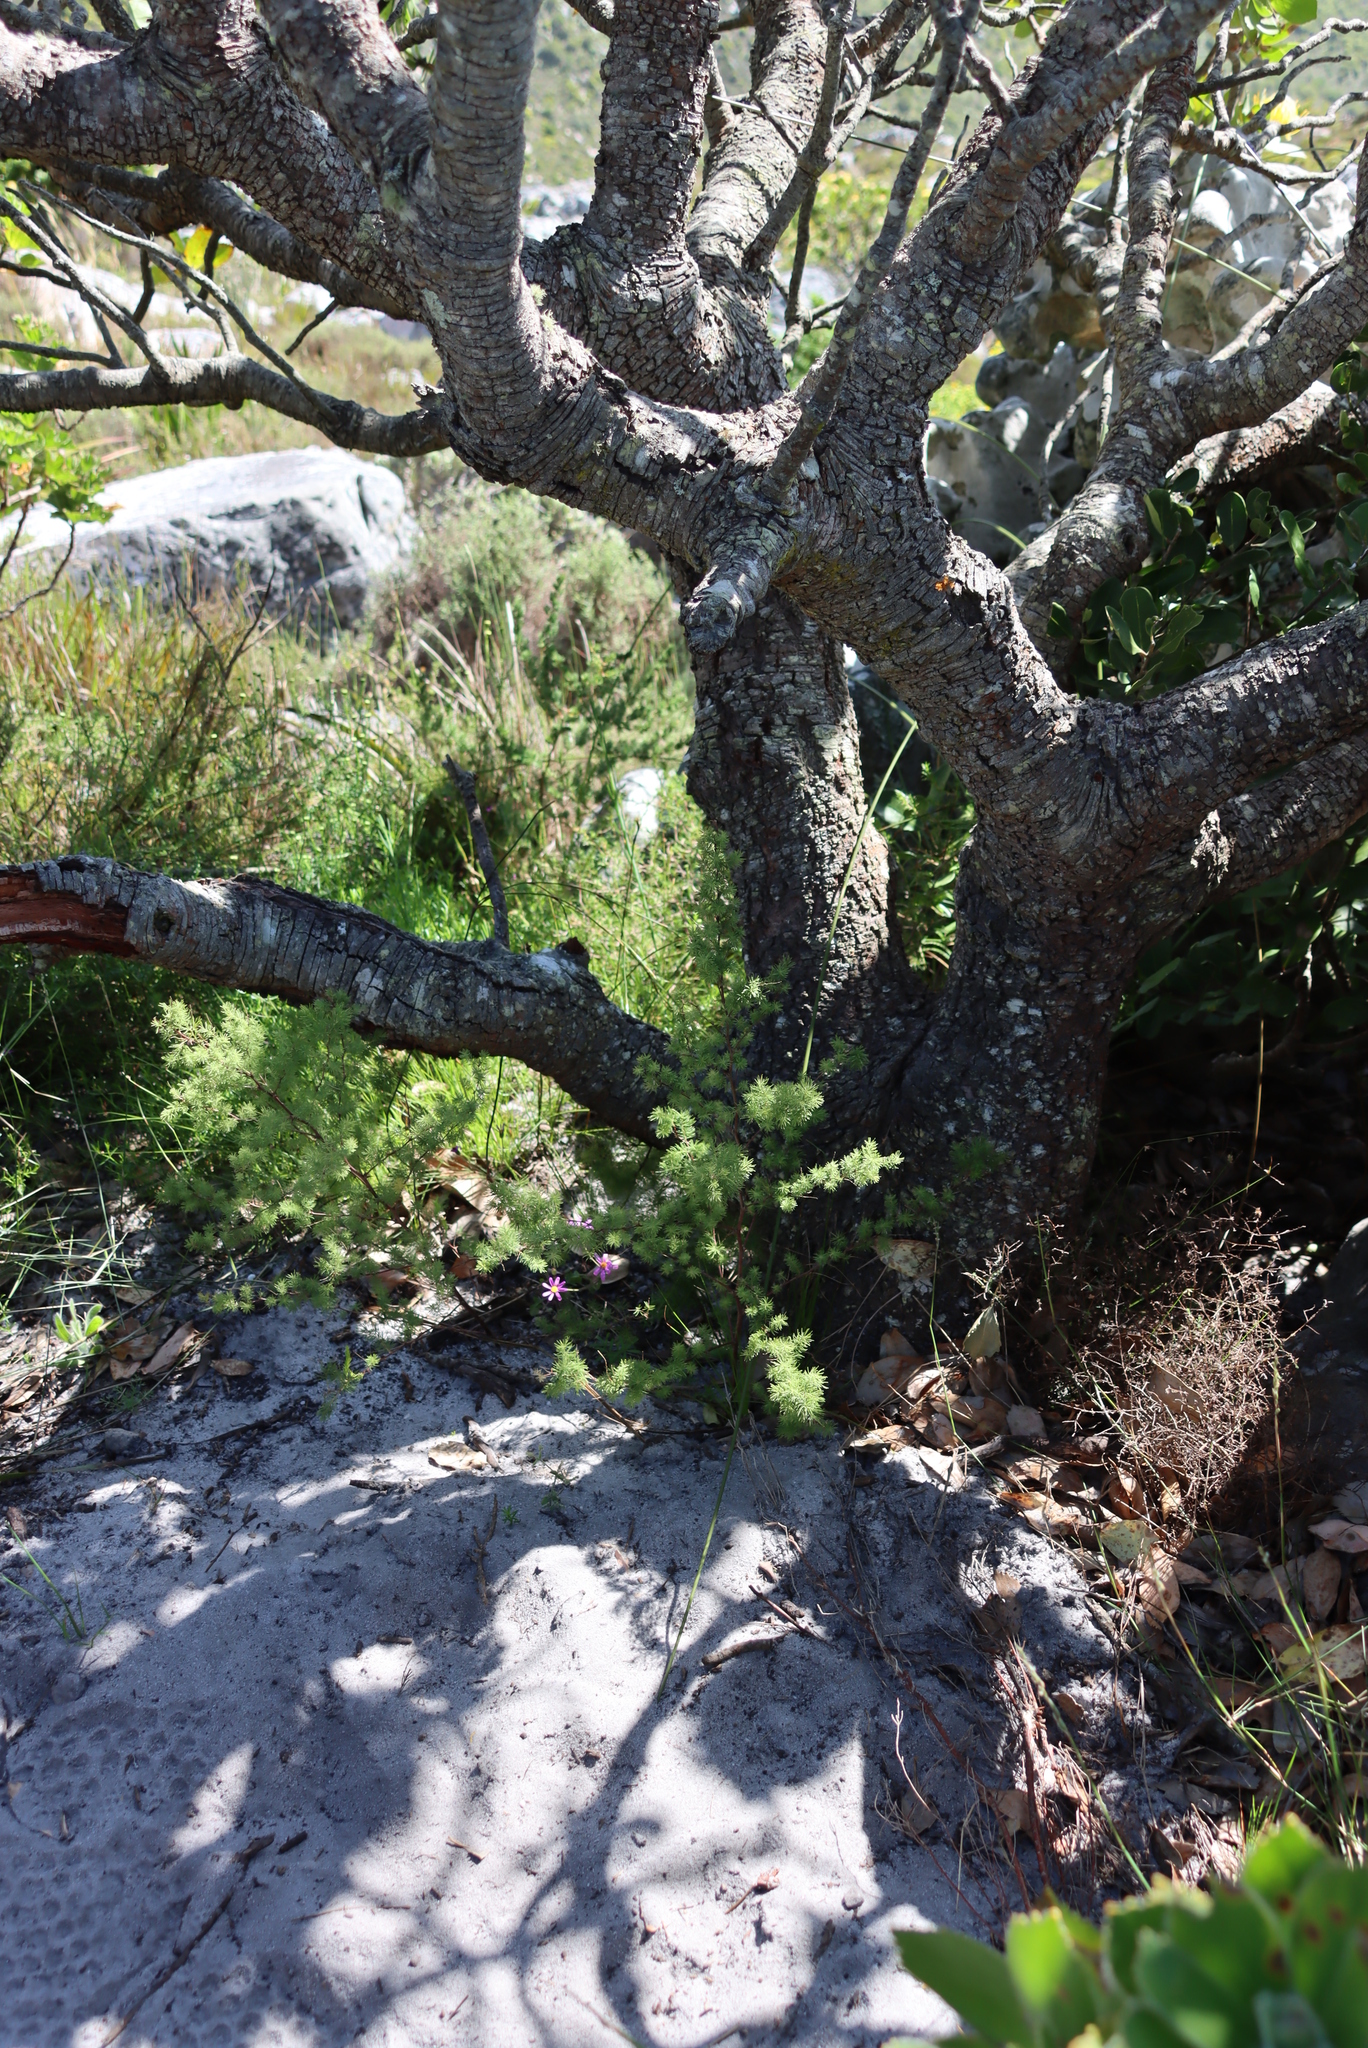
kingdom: Plantae
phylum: Tracheophyta
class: Liliopsida
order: Asparagales
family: Asparagaceae
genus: Asparagus
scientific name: Asparagus rubicundus
